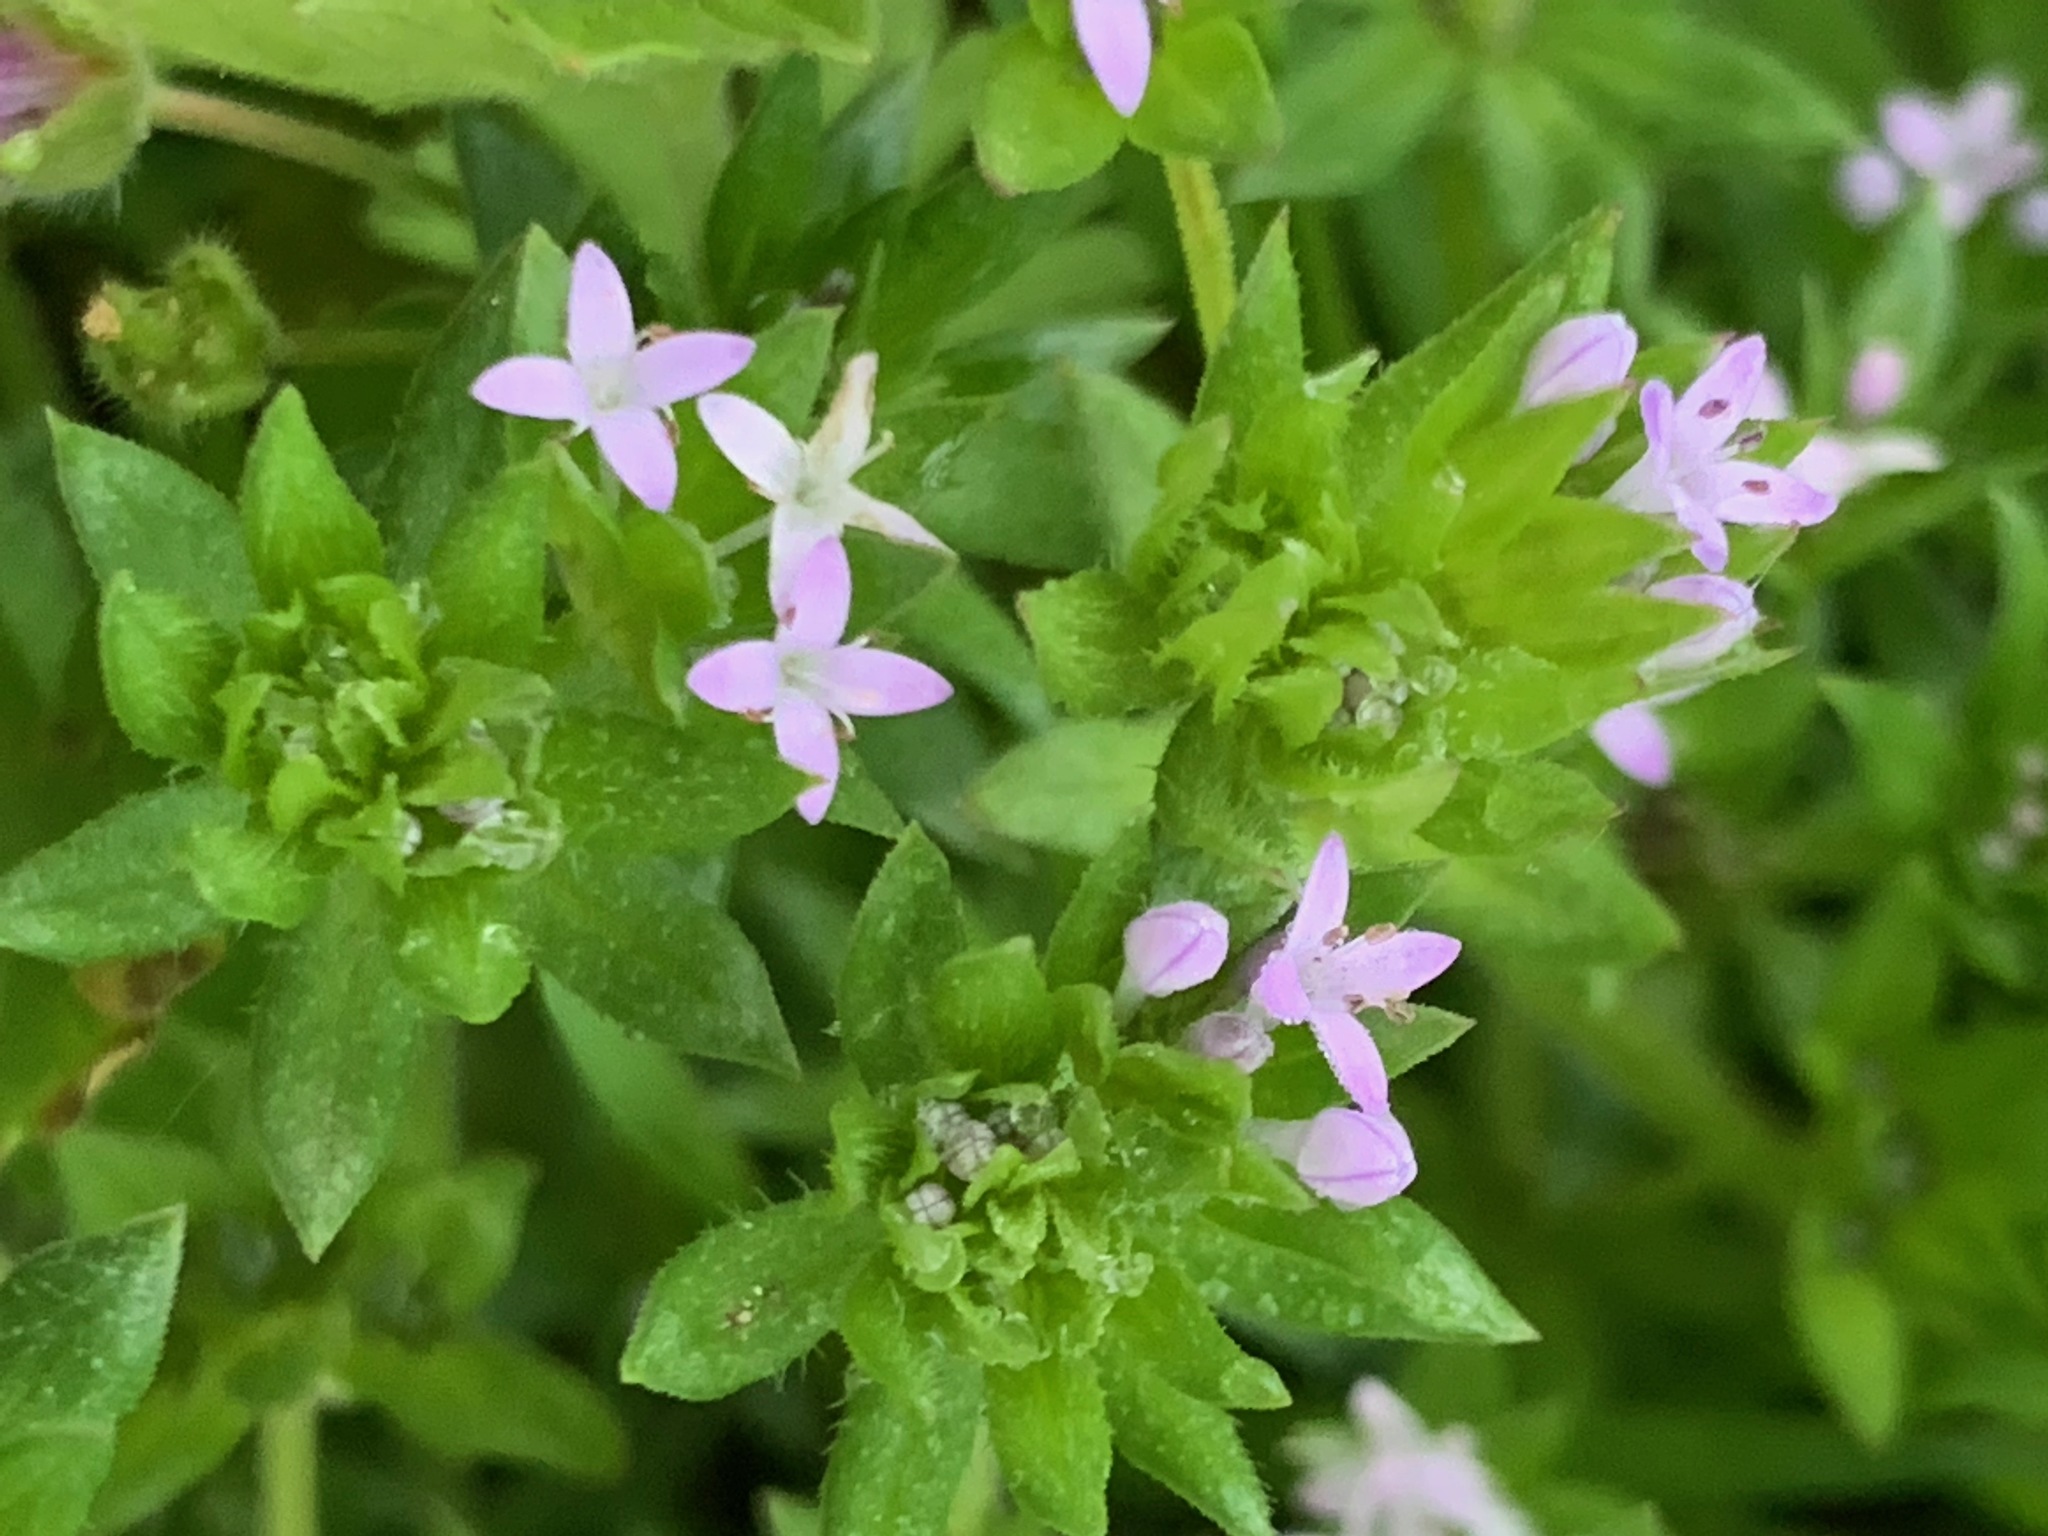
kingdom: Plantae
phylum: Tracheophyta
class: Magnoliopsida
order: Gentianales
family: Rubiaceae
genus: Sherardia
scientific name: Sherardia arvensis
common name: Field madder
